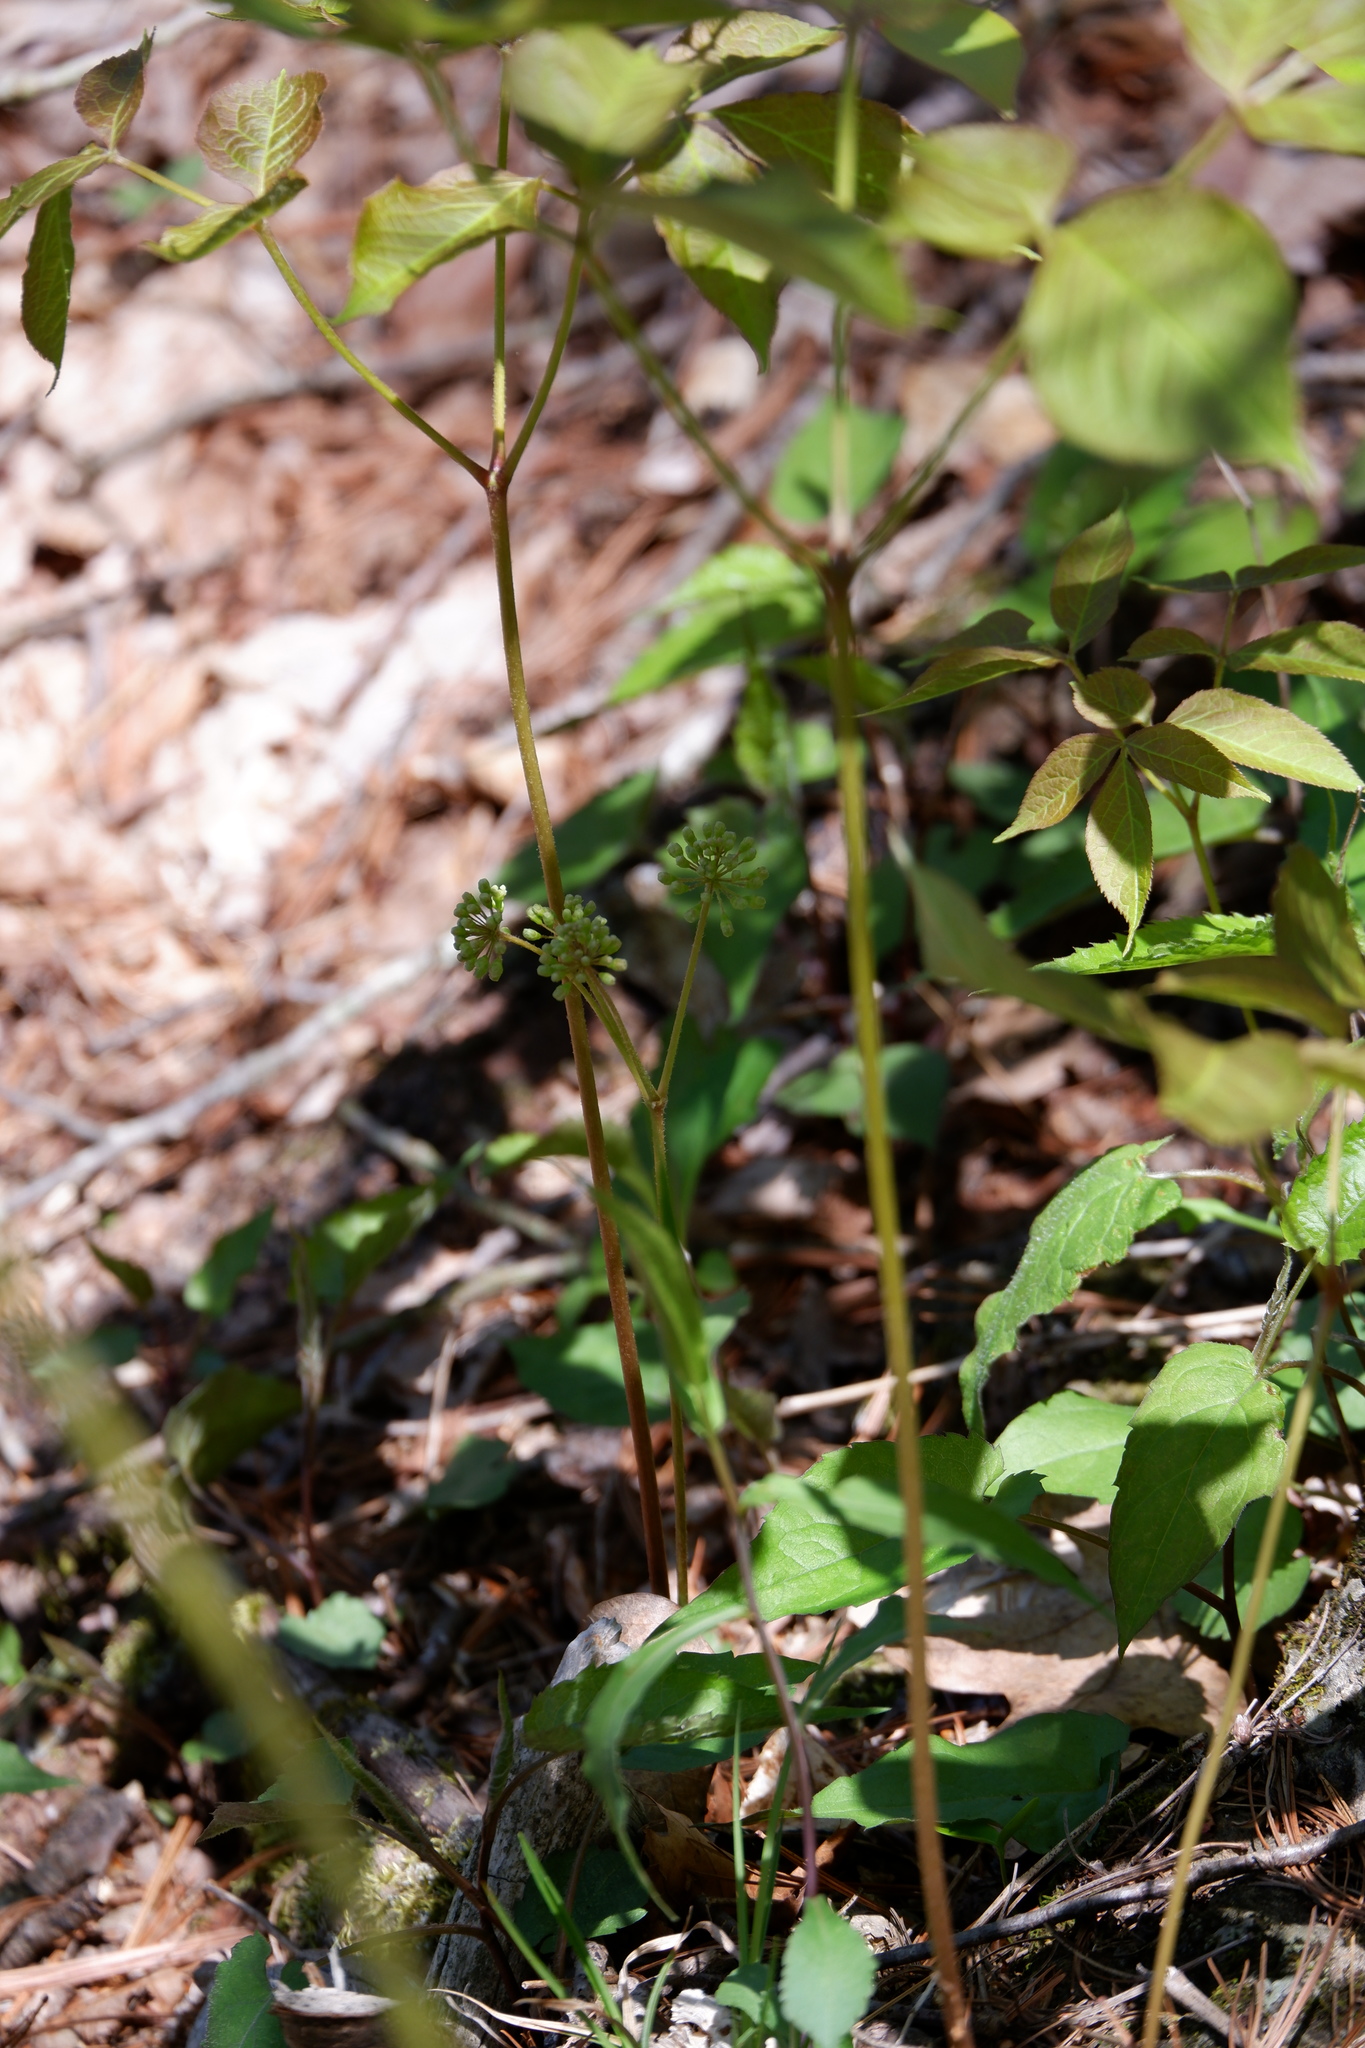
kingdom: Plantae
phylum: Tracheophyta
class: Magnoliopsida
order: Apiales
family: Araliaceae
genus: Aralia
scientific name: Aralia nudicaulis
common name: Wild sarsaparilla
